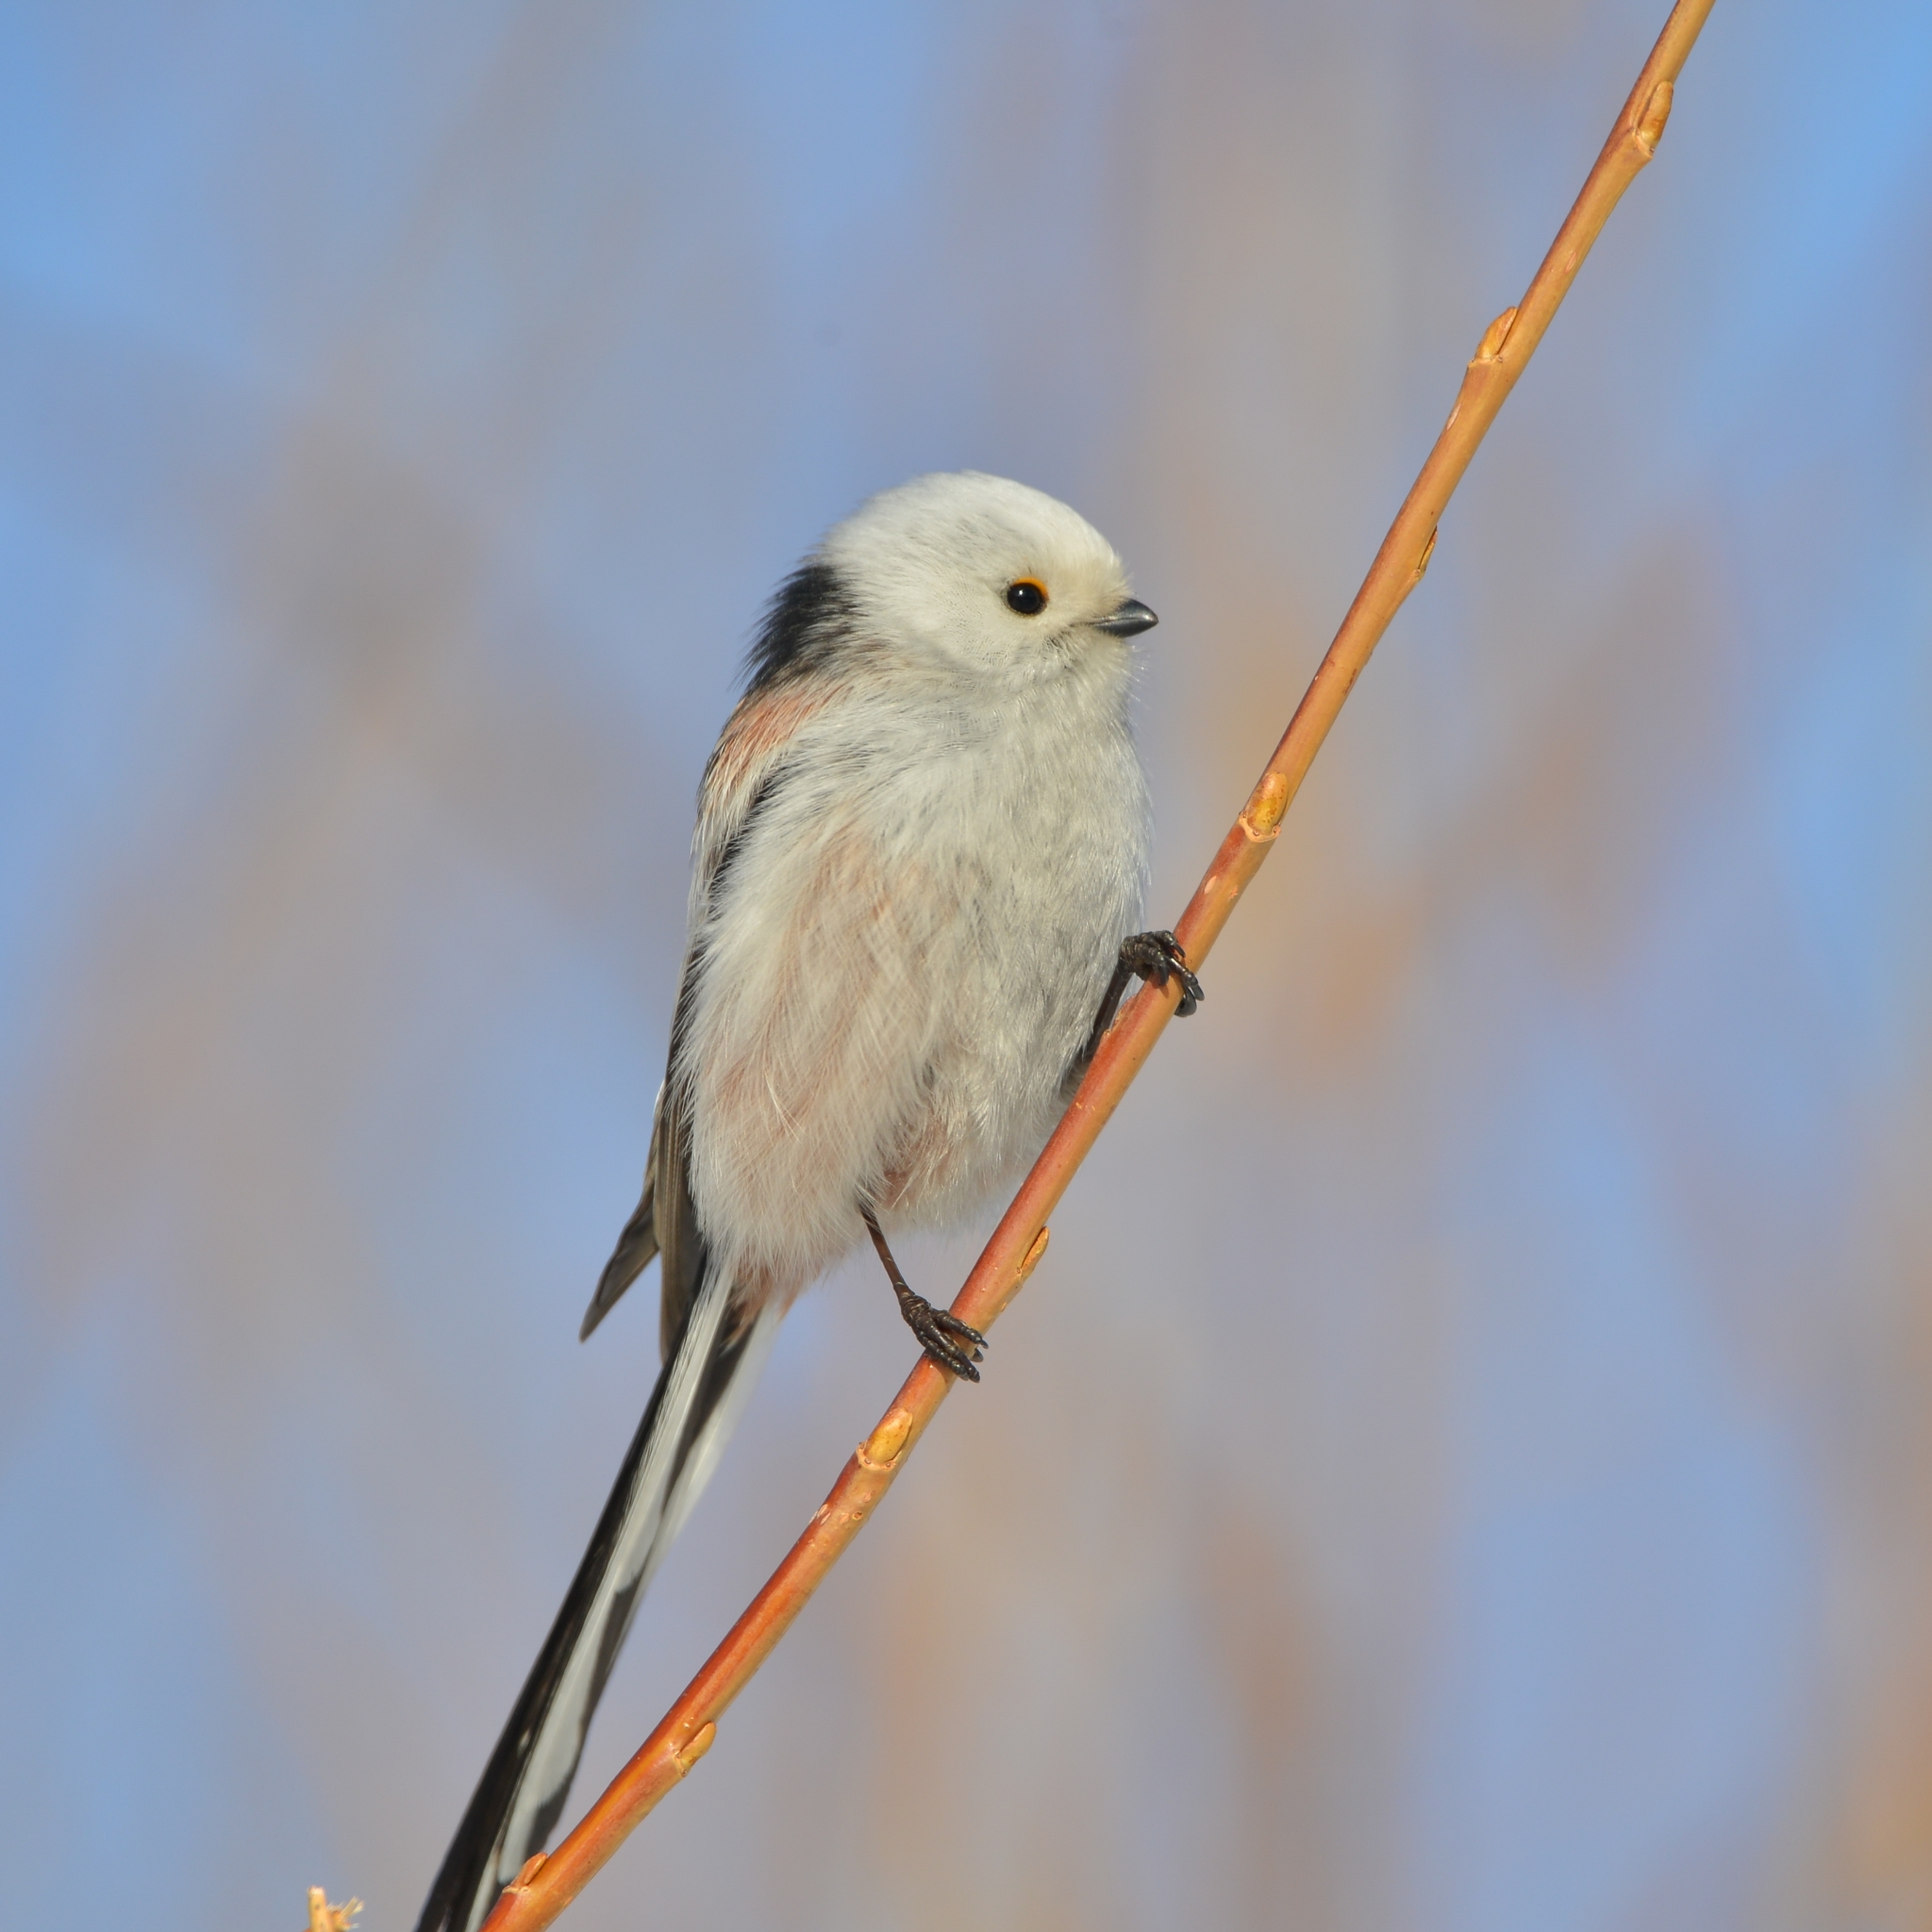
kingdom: Animalia
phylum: Chordata
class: Aves
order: Passeriformes
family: Aegithalidae
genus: Aegithalos
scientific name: Aegithalos caudatus
